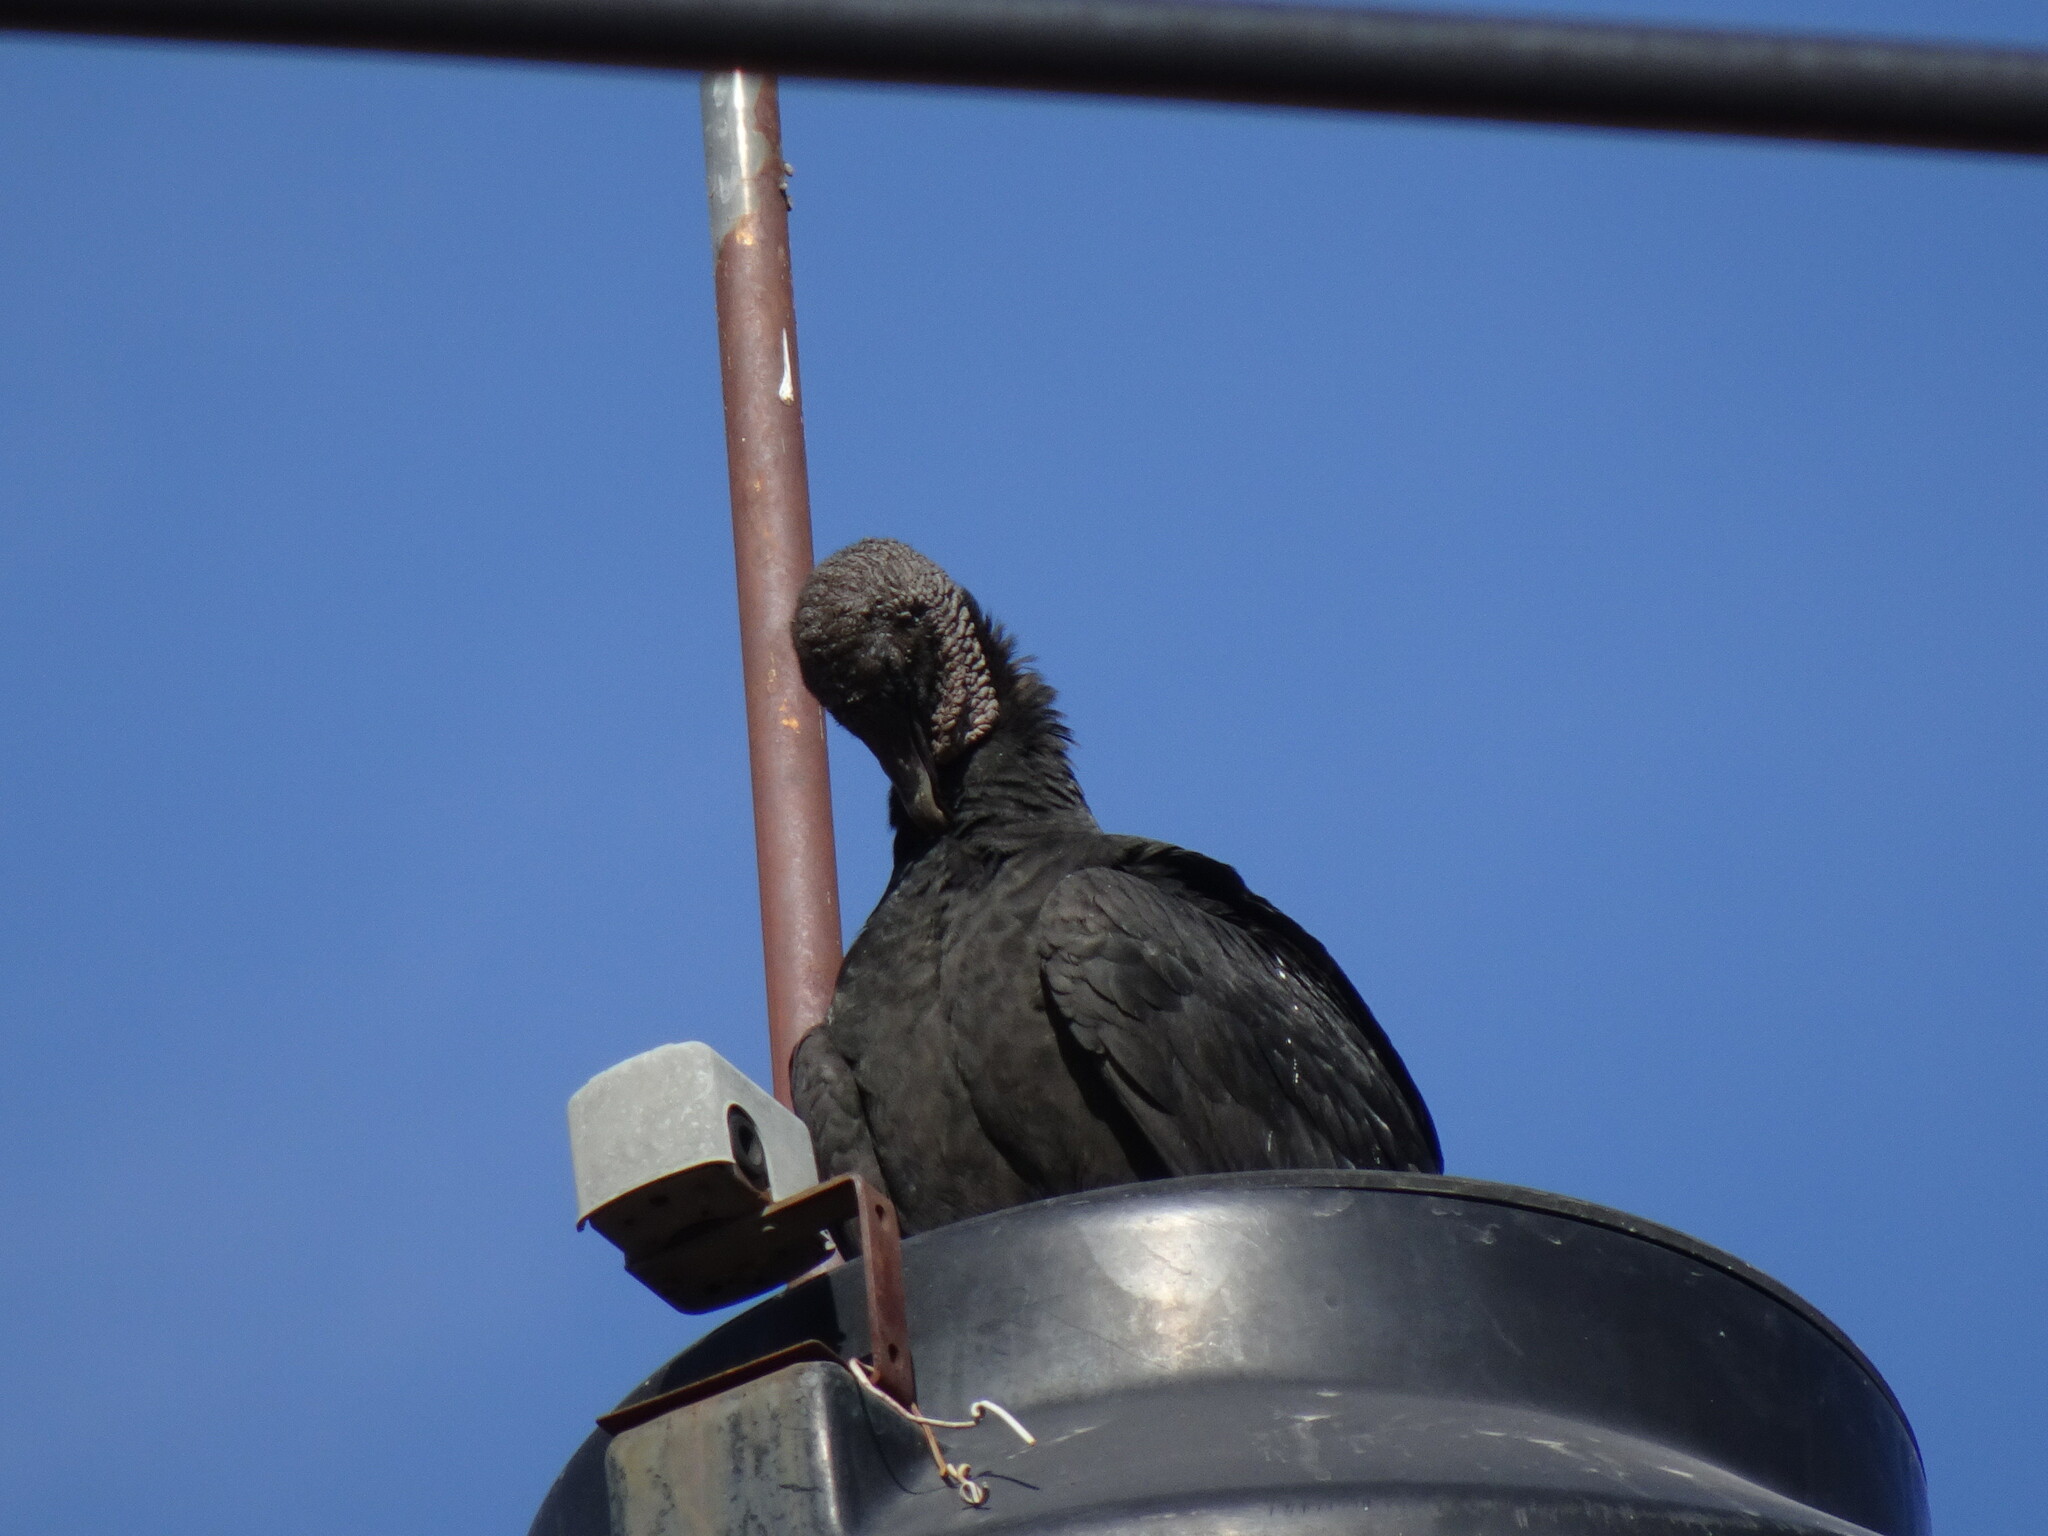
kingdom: Animalia
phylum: Chordata
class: Aves
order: Accipitriformes
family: Cathartidae
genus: Coragyps
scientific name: Coragyps atratus
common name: Black vulture
